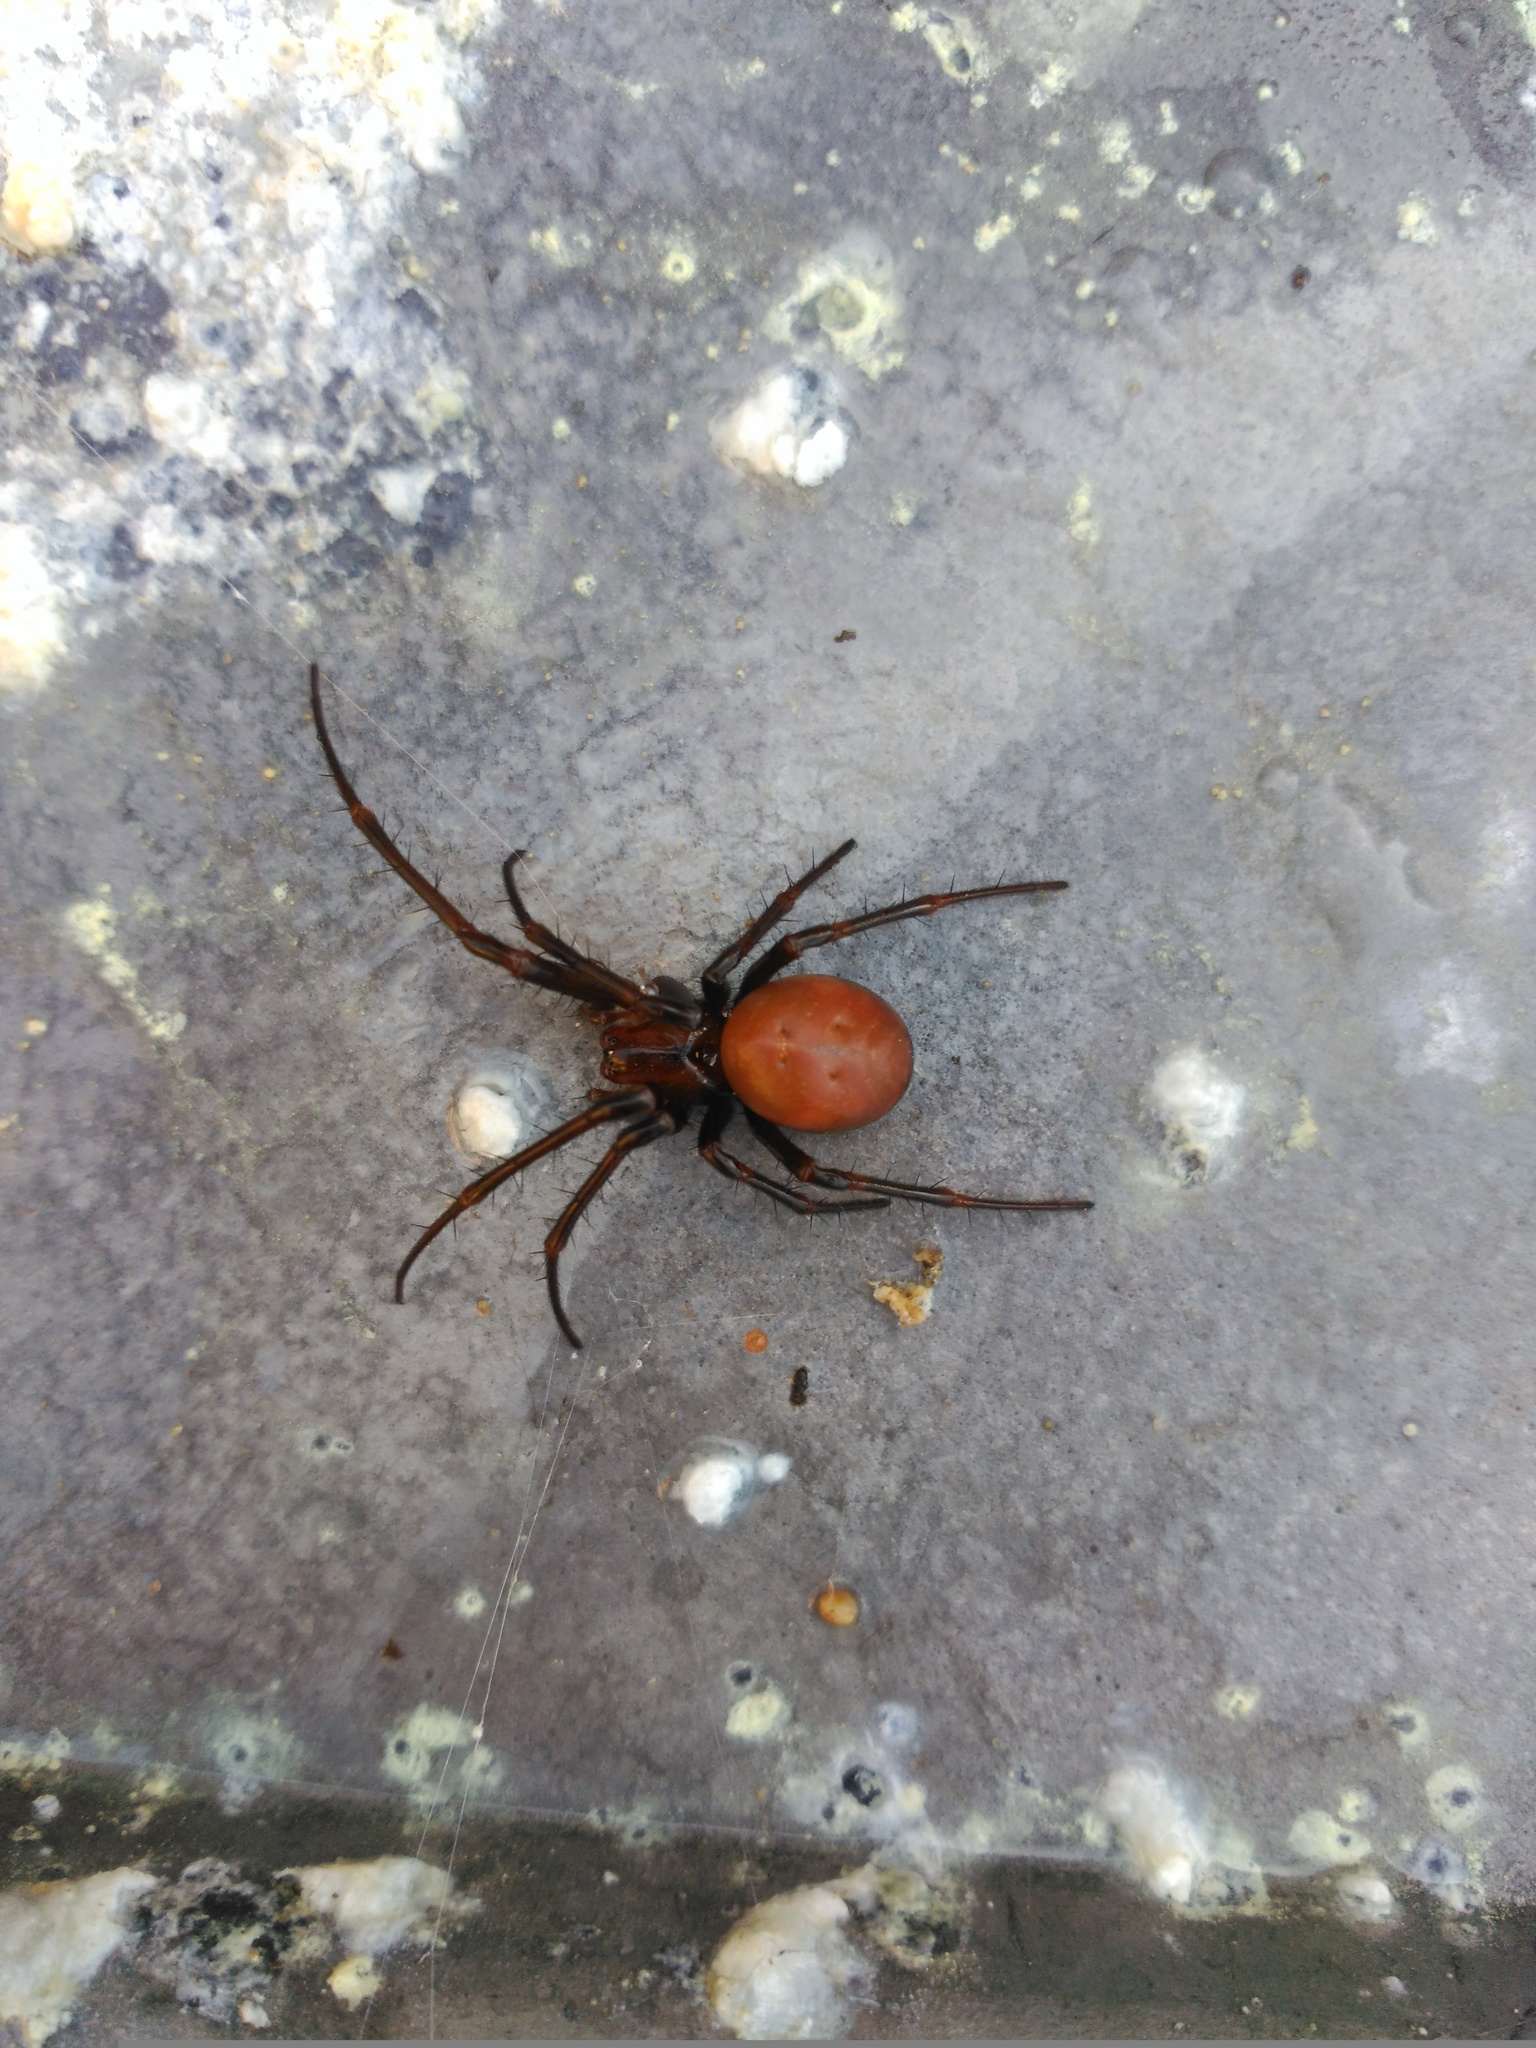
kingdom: Animalia
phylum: Arthropoda
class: Arachnida
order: Araneae
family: Tetragnathidae
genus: Meta
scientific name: Meta bourneti
